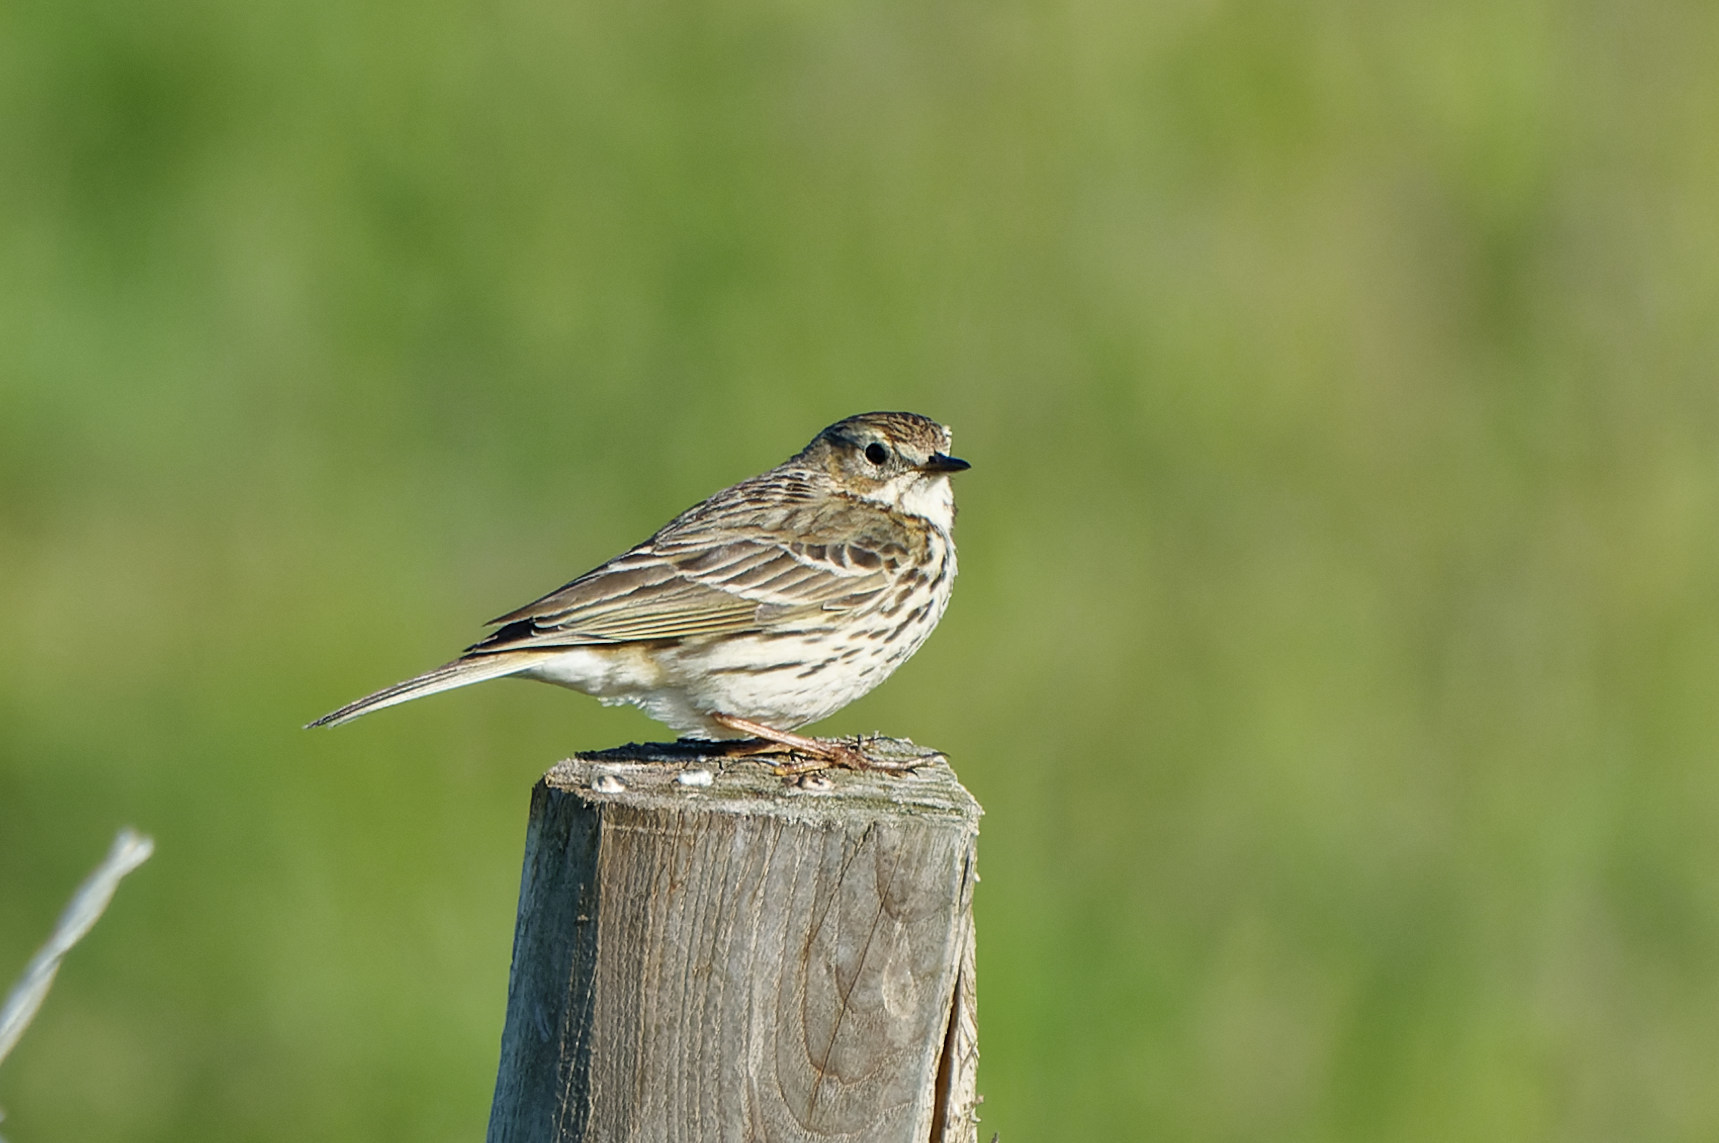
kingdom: Animalia
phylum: Chordata
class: Aves
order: Passeriformes
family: Motacillidae
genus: Anthus
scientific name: Anthus pratensis
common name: Meadow pipit
